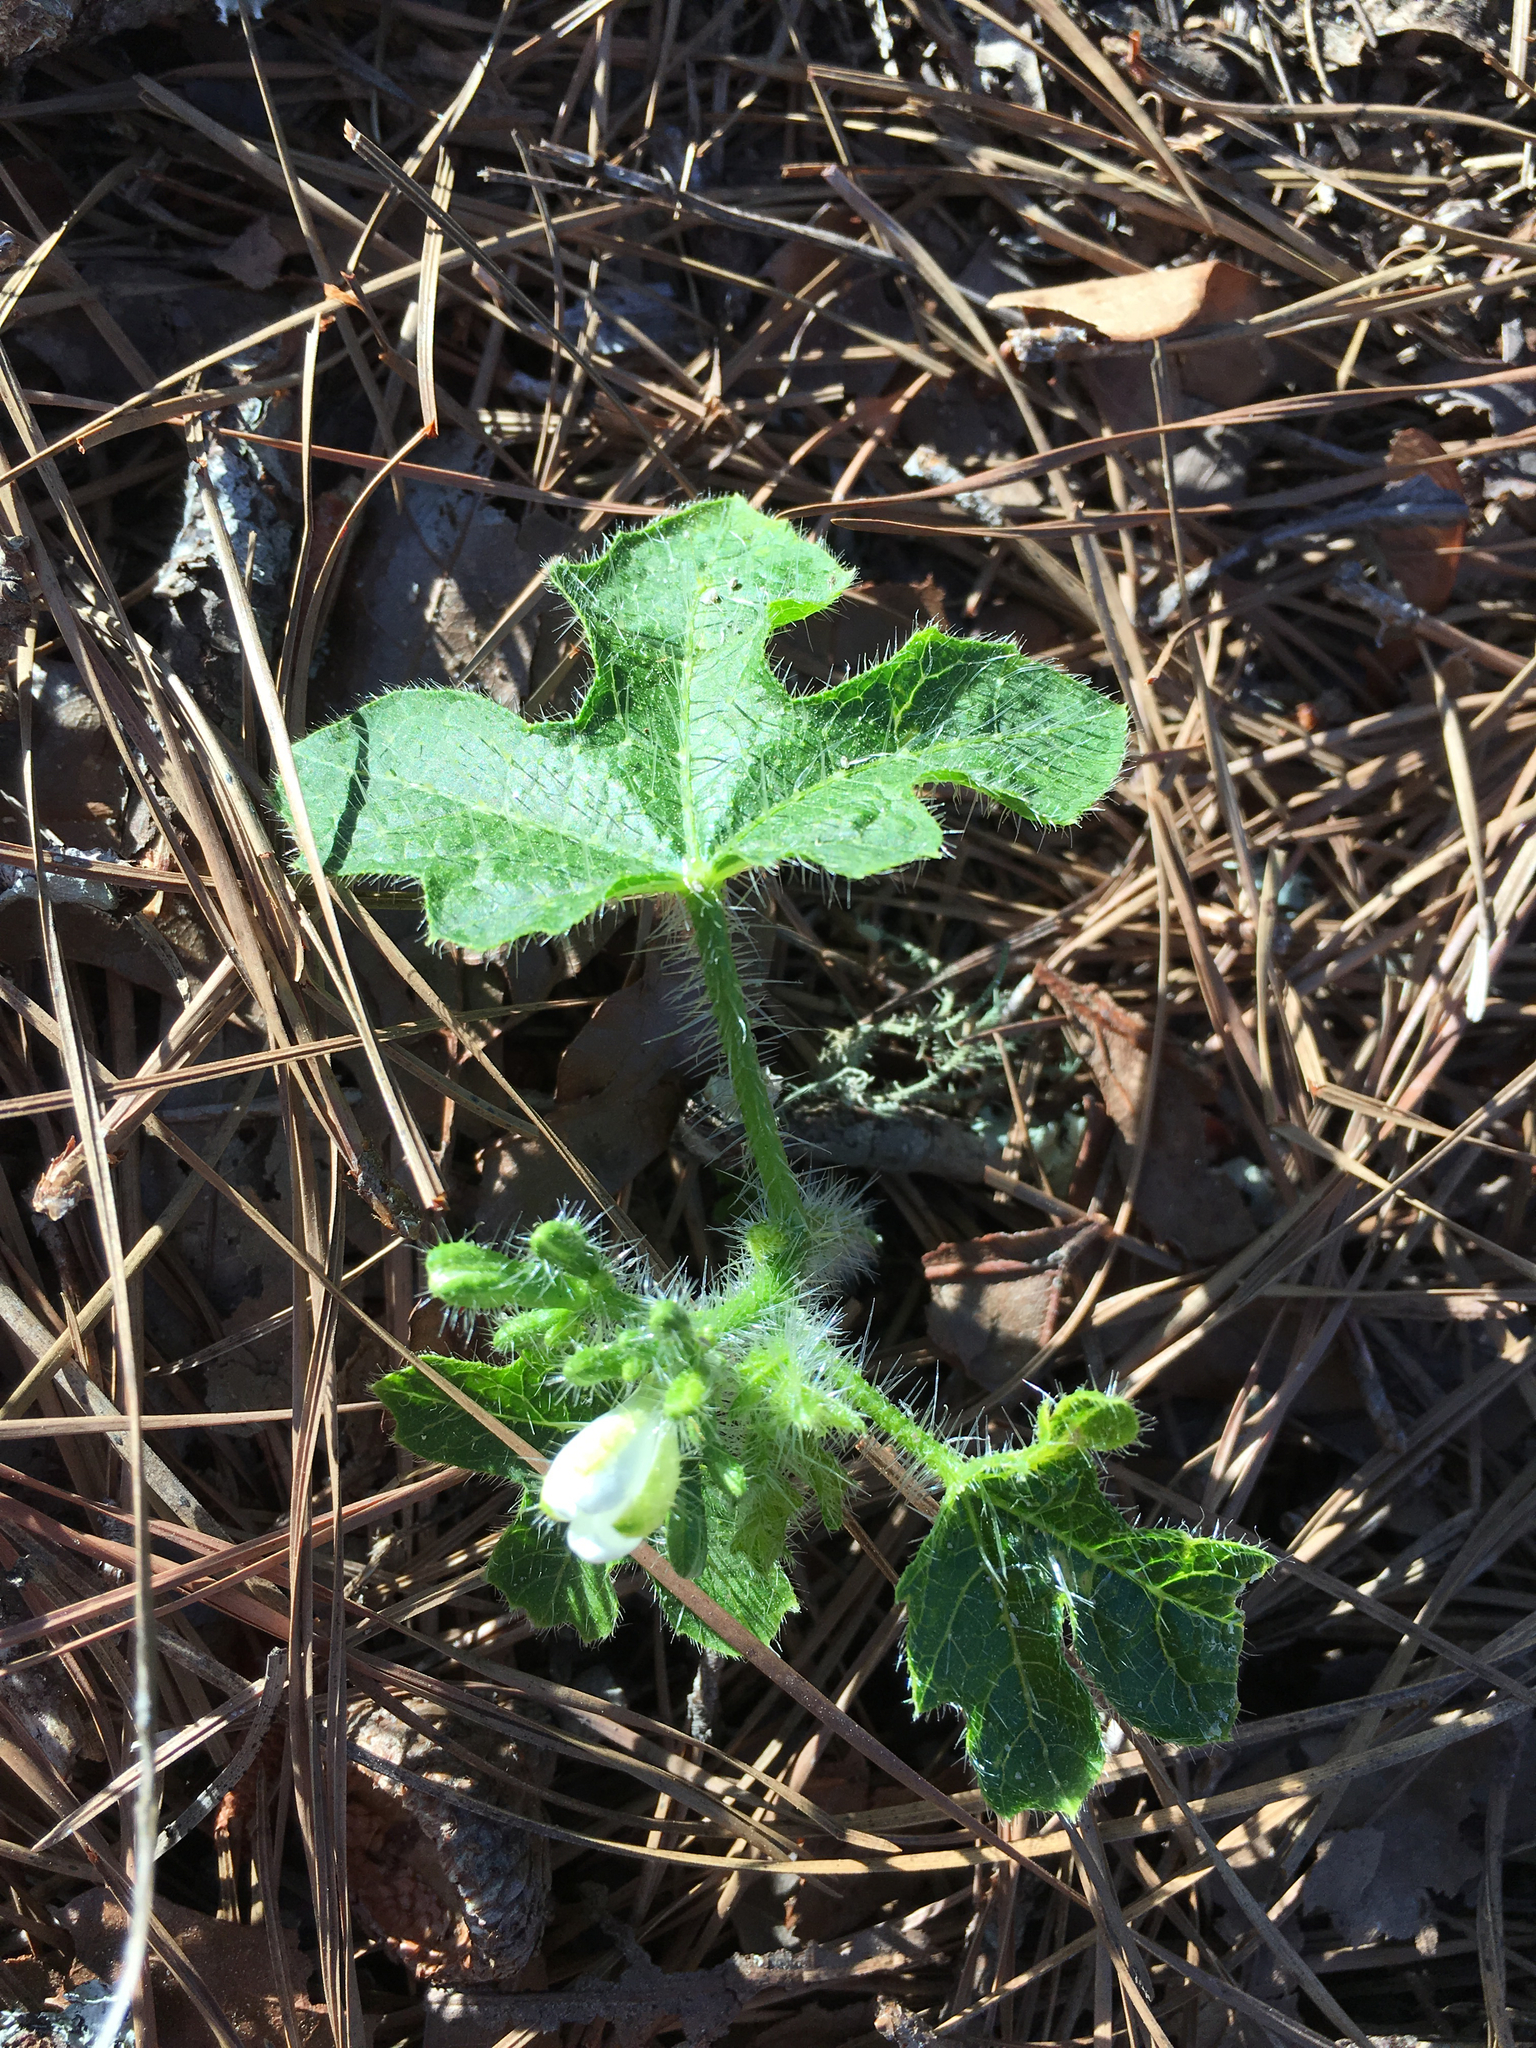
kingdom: Plantae
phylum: Tracheophyta
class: Magnoliopsida
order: Malpighiales
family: Euphorbiaceae
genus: Cnidoscolus
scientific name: Cnidoscolus stimulosus
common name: Bull-nettle
